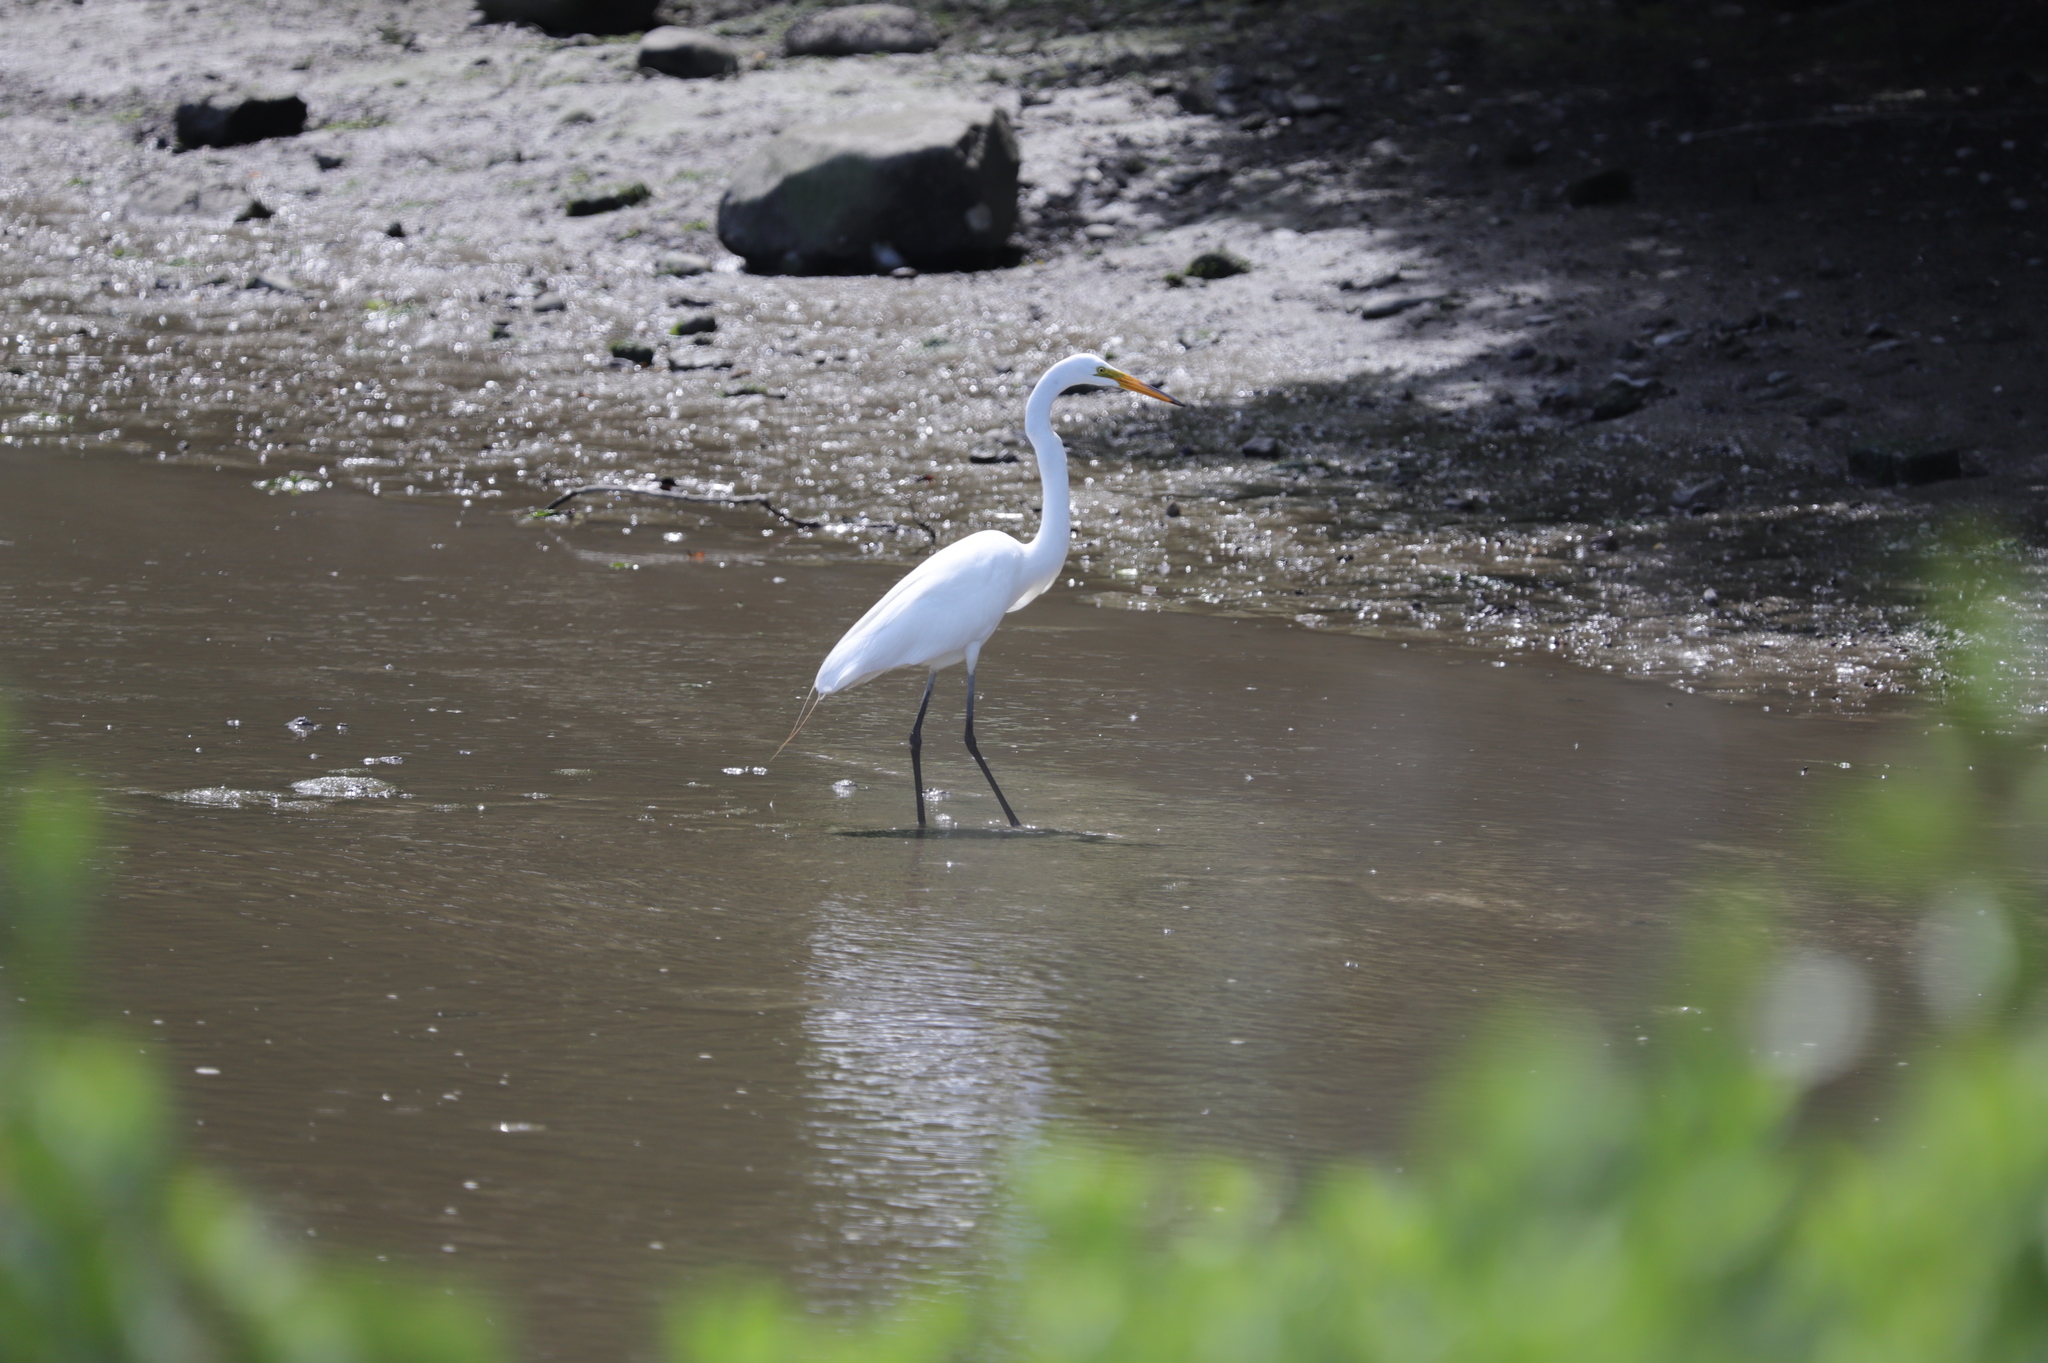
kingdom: Animalia
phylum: Chordata
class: Aves
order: Pelecaniformes
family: Ardeidae
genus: Ardea
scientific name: Ardea alba
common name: Great egret
